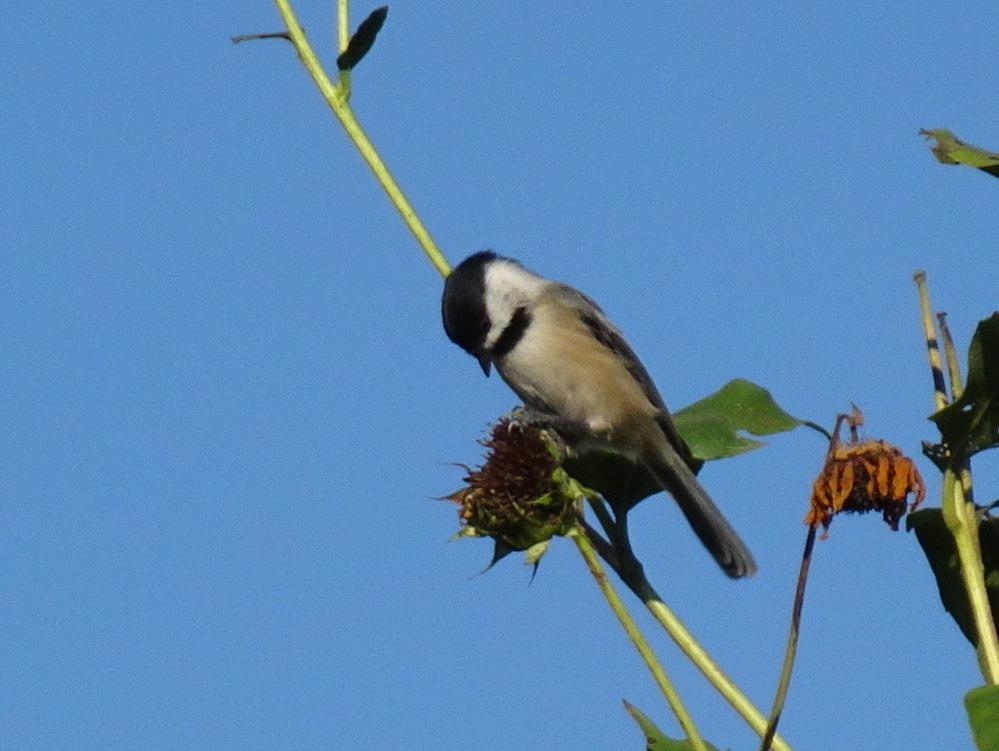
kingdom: Animalia
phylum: Chordata
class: Aves
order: Passeriformes
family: Paridae
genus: Poecile
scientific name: Poecile atricapillus
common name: Black-capped chickadee
